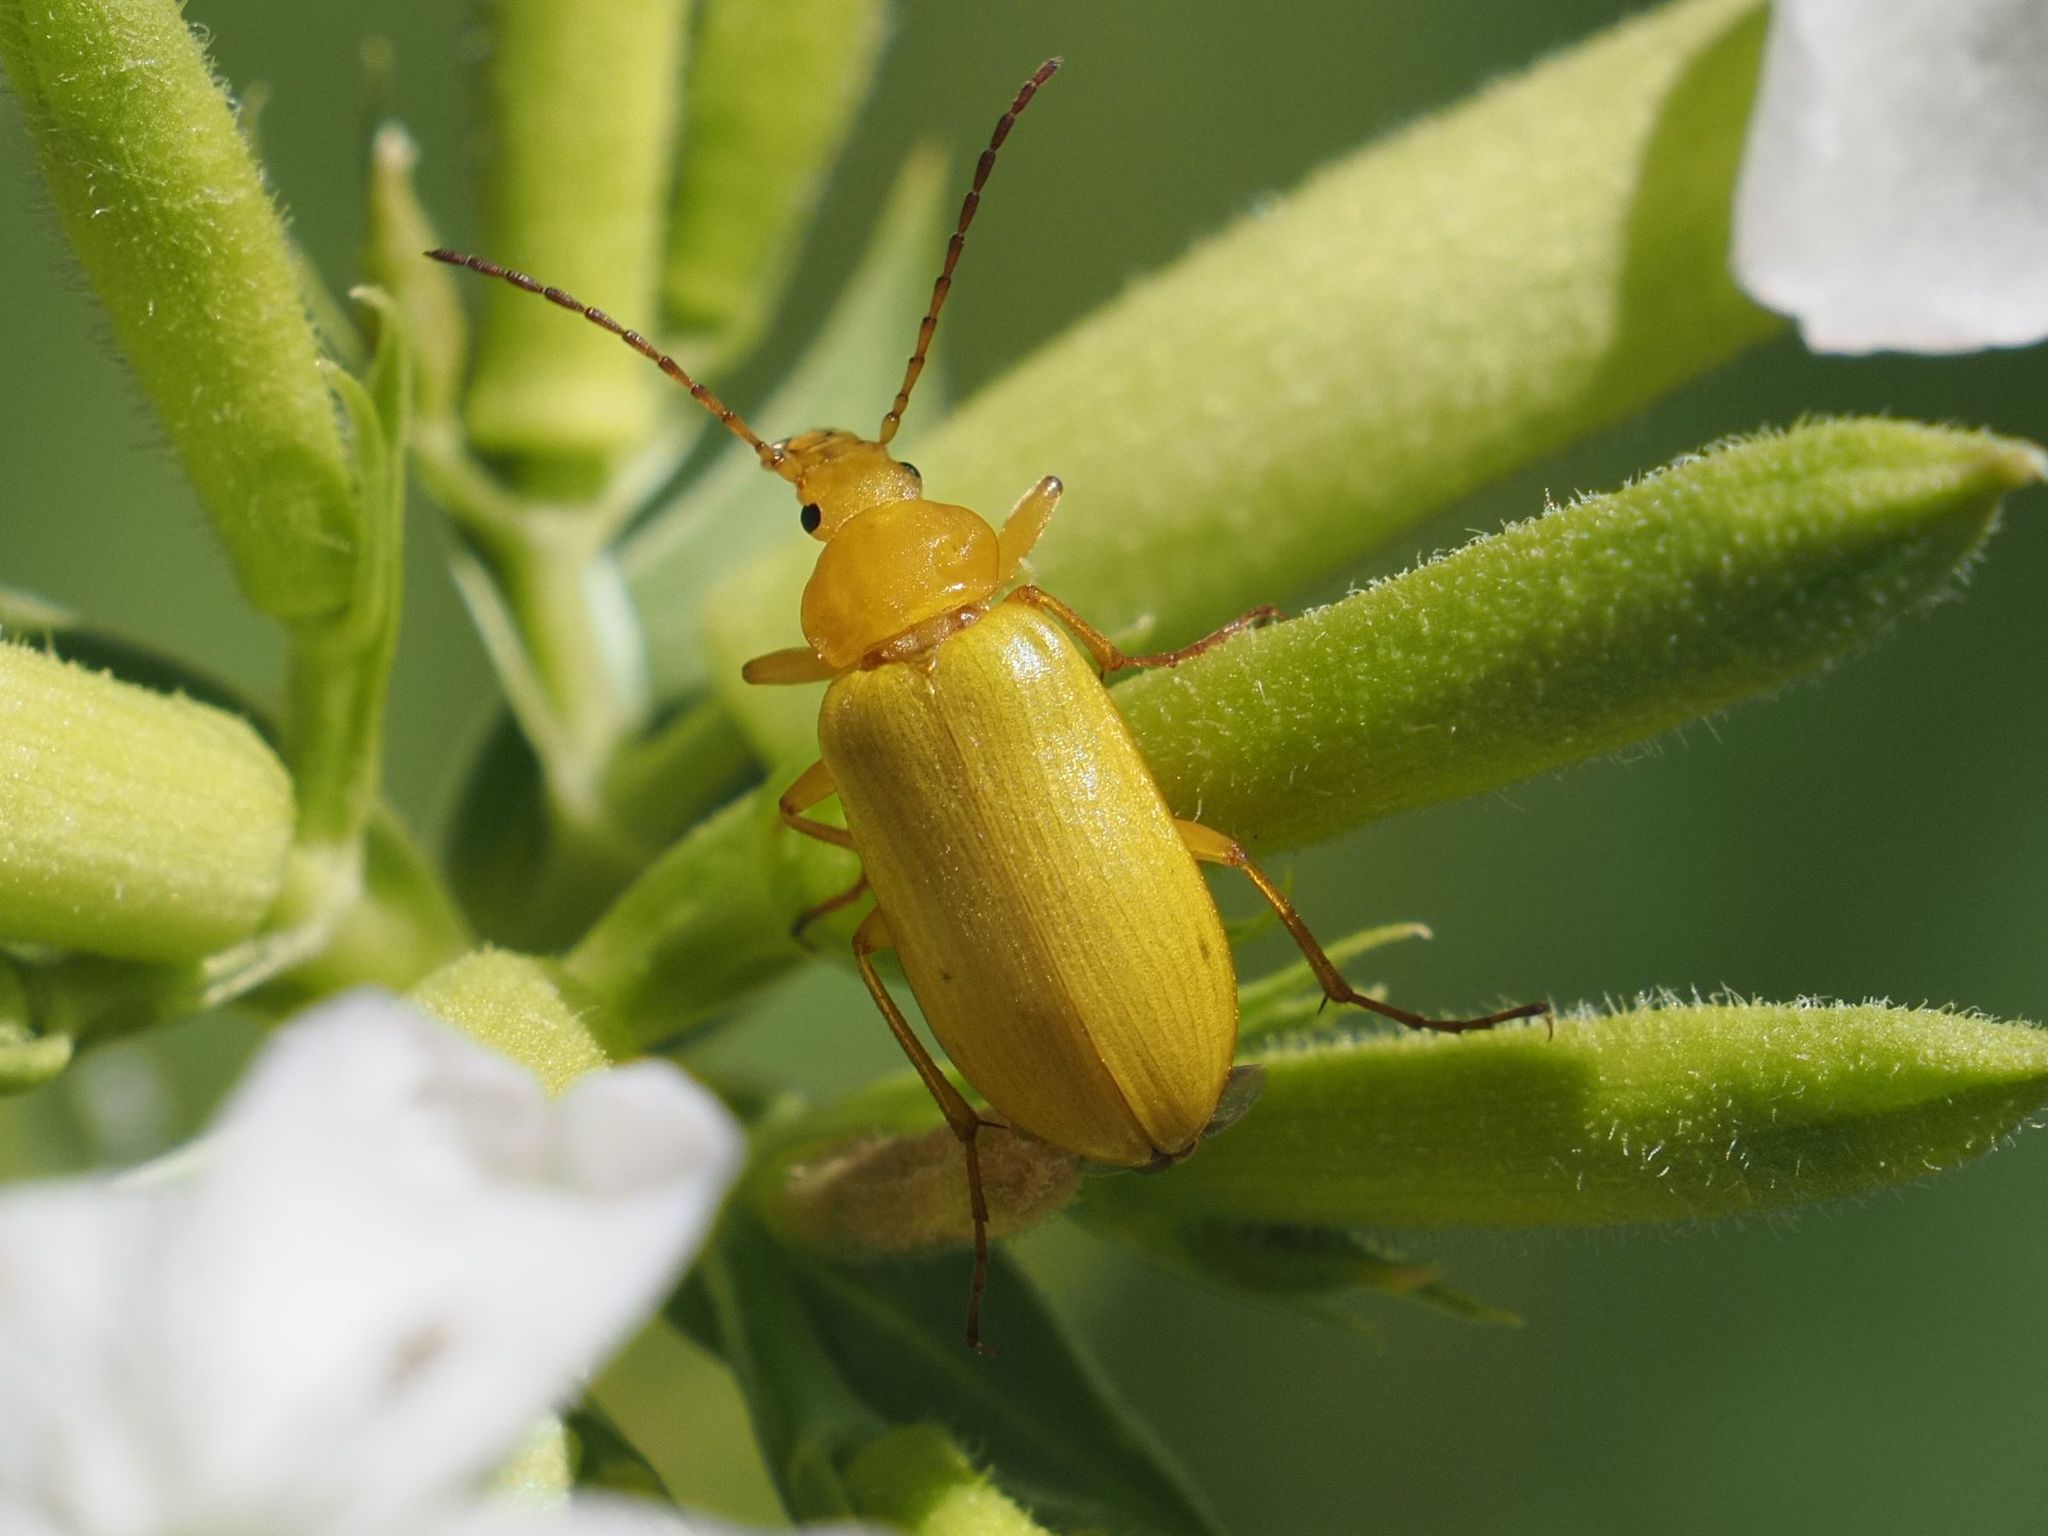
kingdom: Animalia
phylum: Arthropoda
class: Insecta
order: Coleoptera
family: Tenebrionidae
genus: Cteniopus
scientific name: Cteniopus sulphureus
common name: Sulphur beetle
